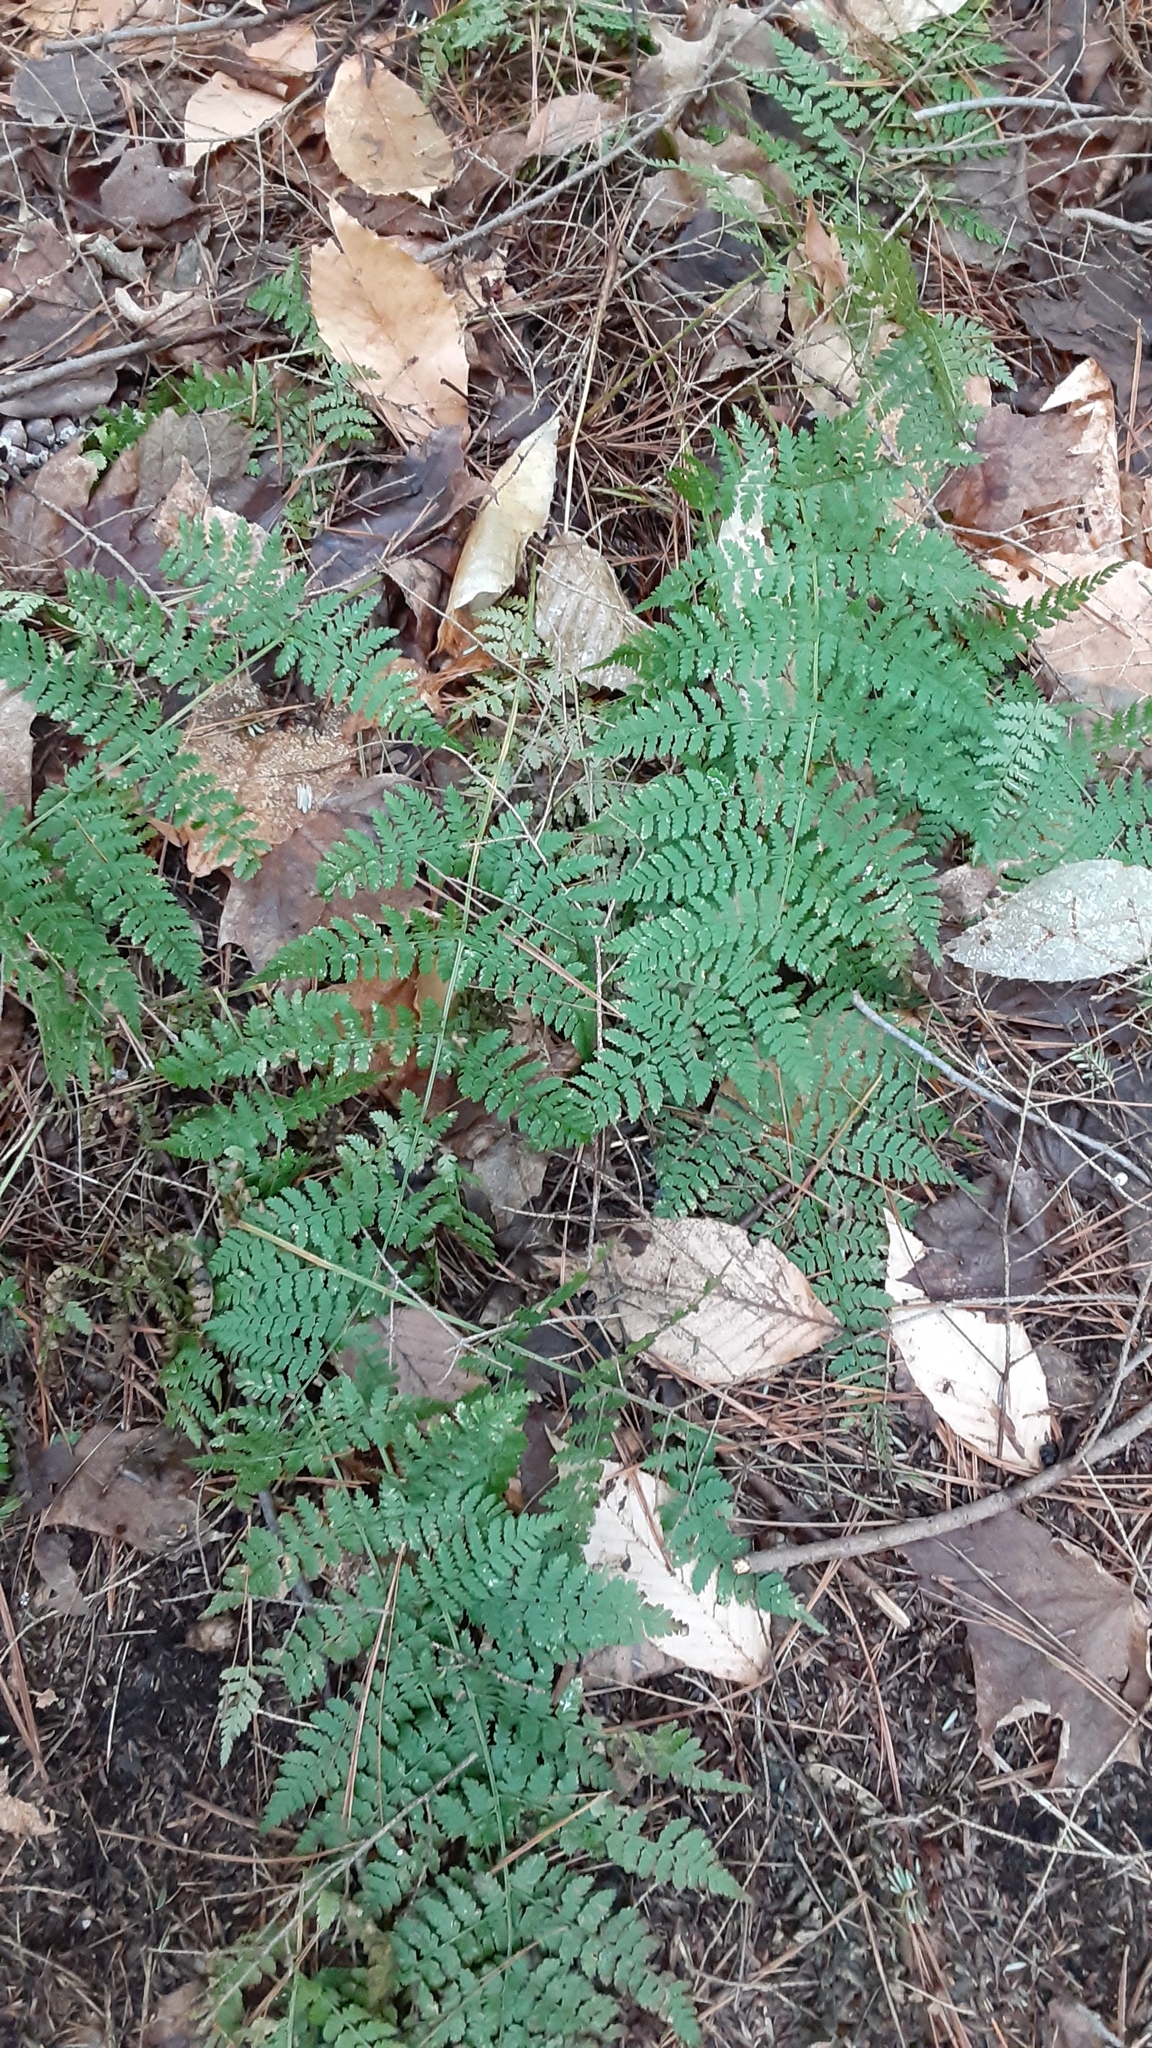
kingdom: Plantae
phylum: Tracheophyta
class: Polypodiopsida
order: Polypodiales
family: Dryopteridaceae
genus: Dryopteris
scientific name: Dryopteris intermedia
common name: Evergreen wood fern
